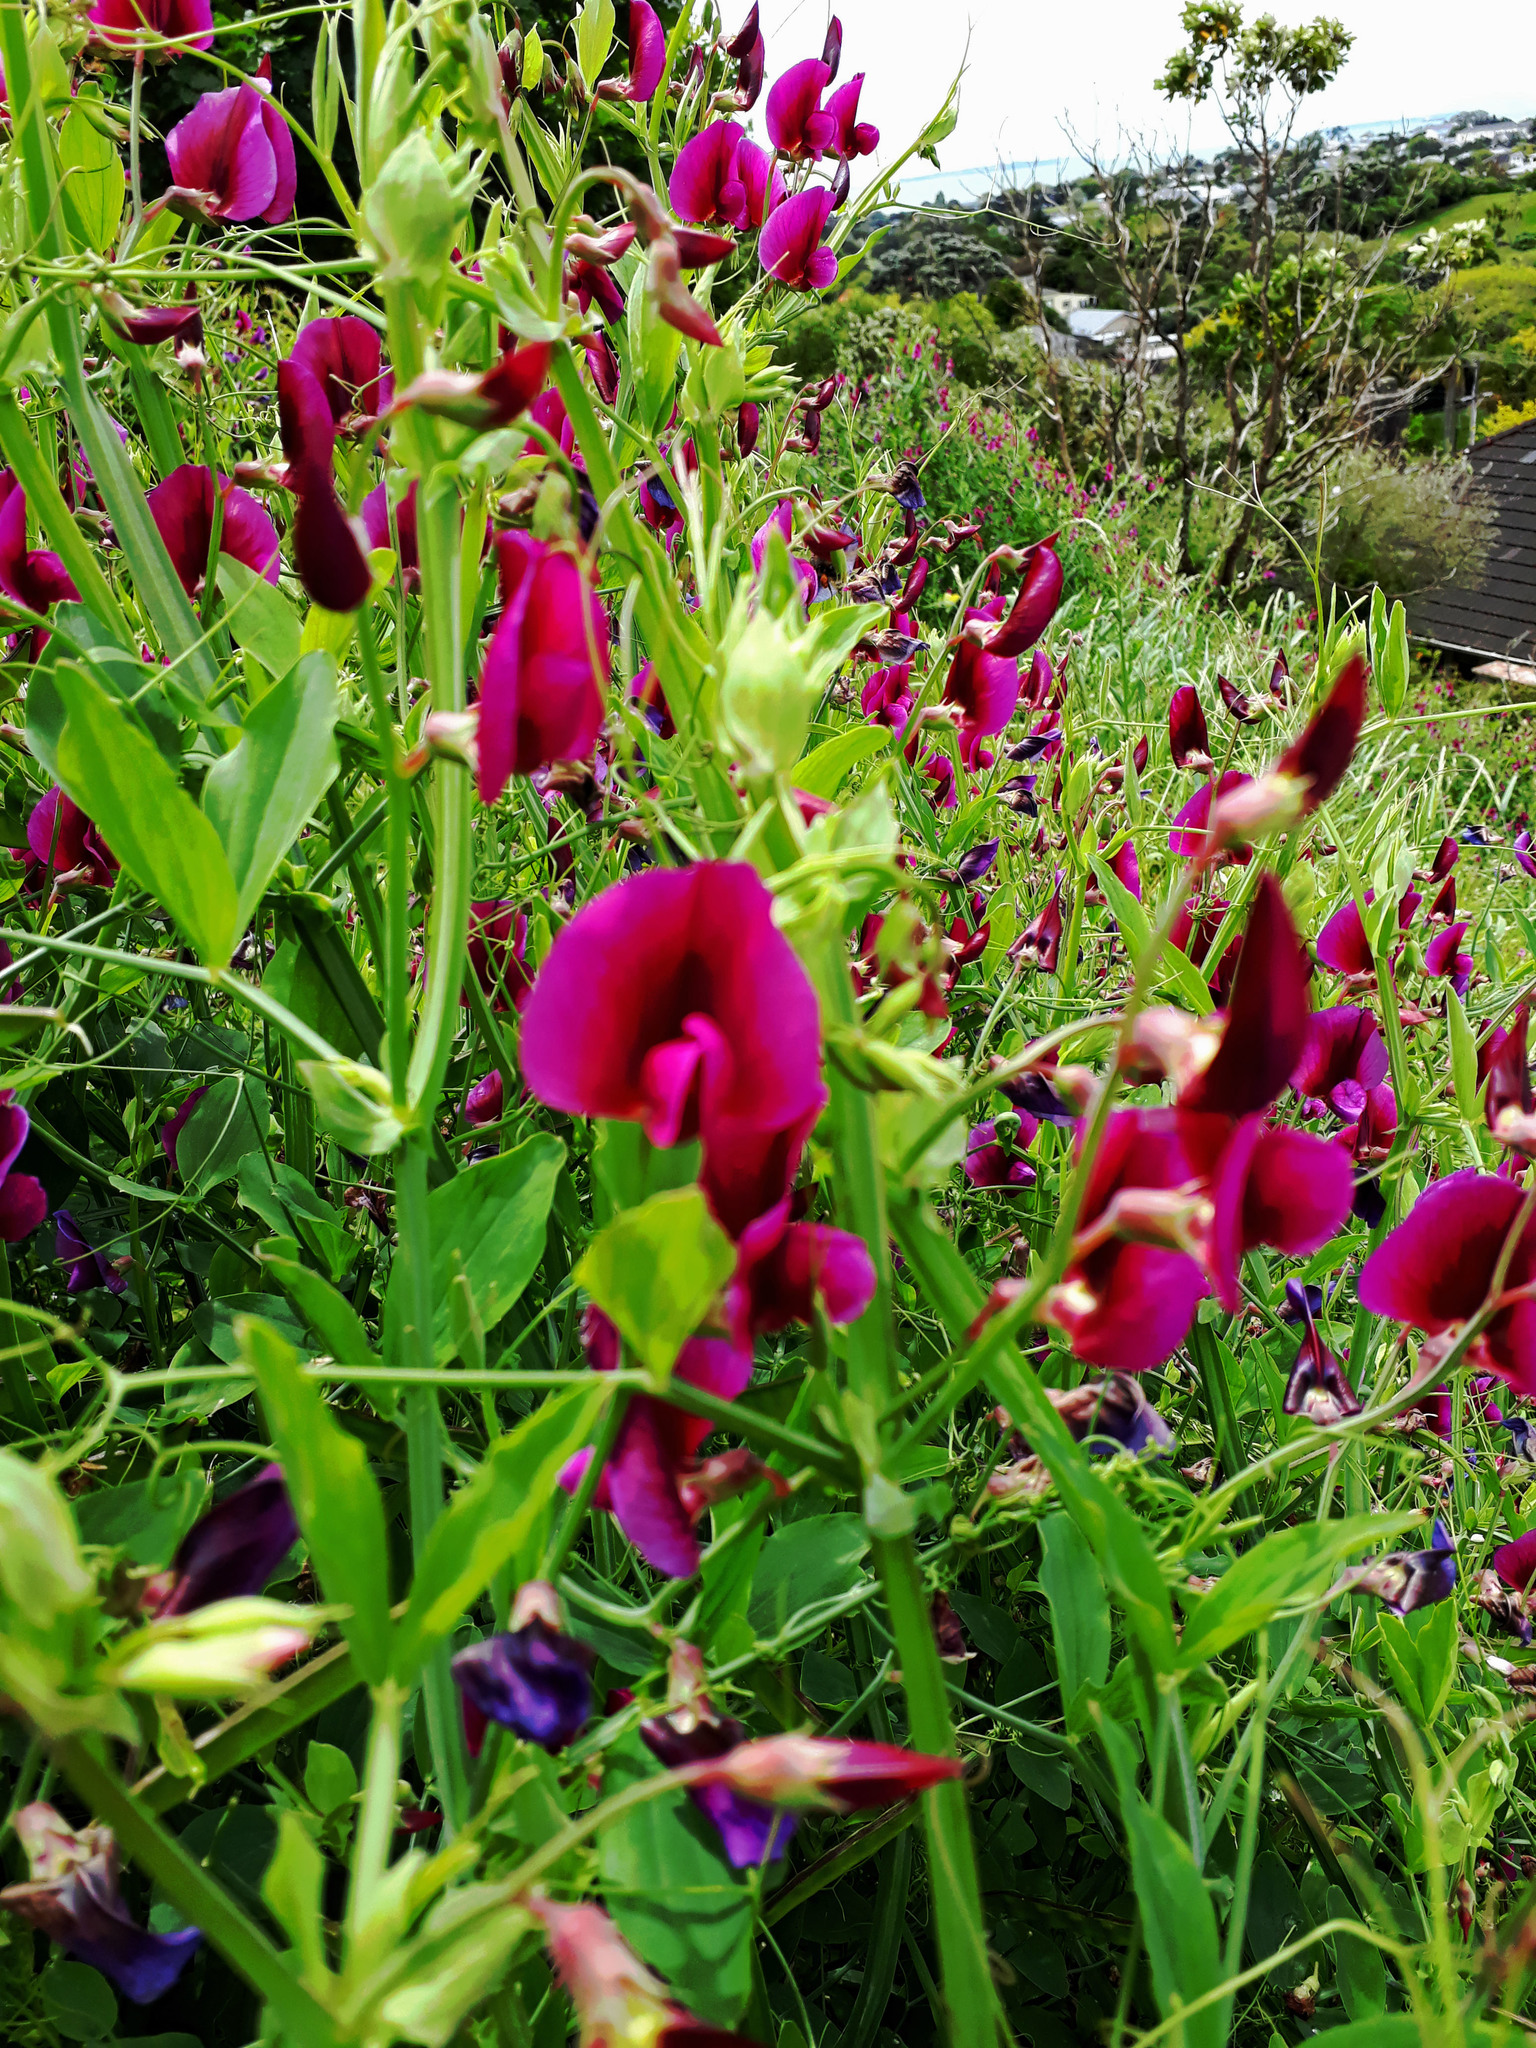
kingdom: Plantae
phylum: Tracheophyta
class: Magnoliopsida
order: Fabales
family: Fabaceae
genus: Lathyrus
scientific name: Lathyrus tingitanus
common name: Tangier pea
